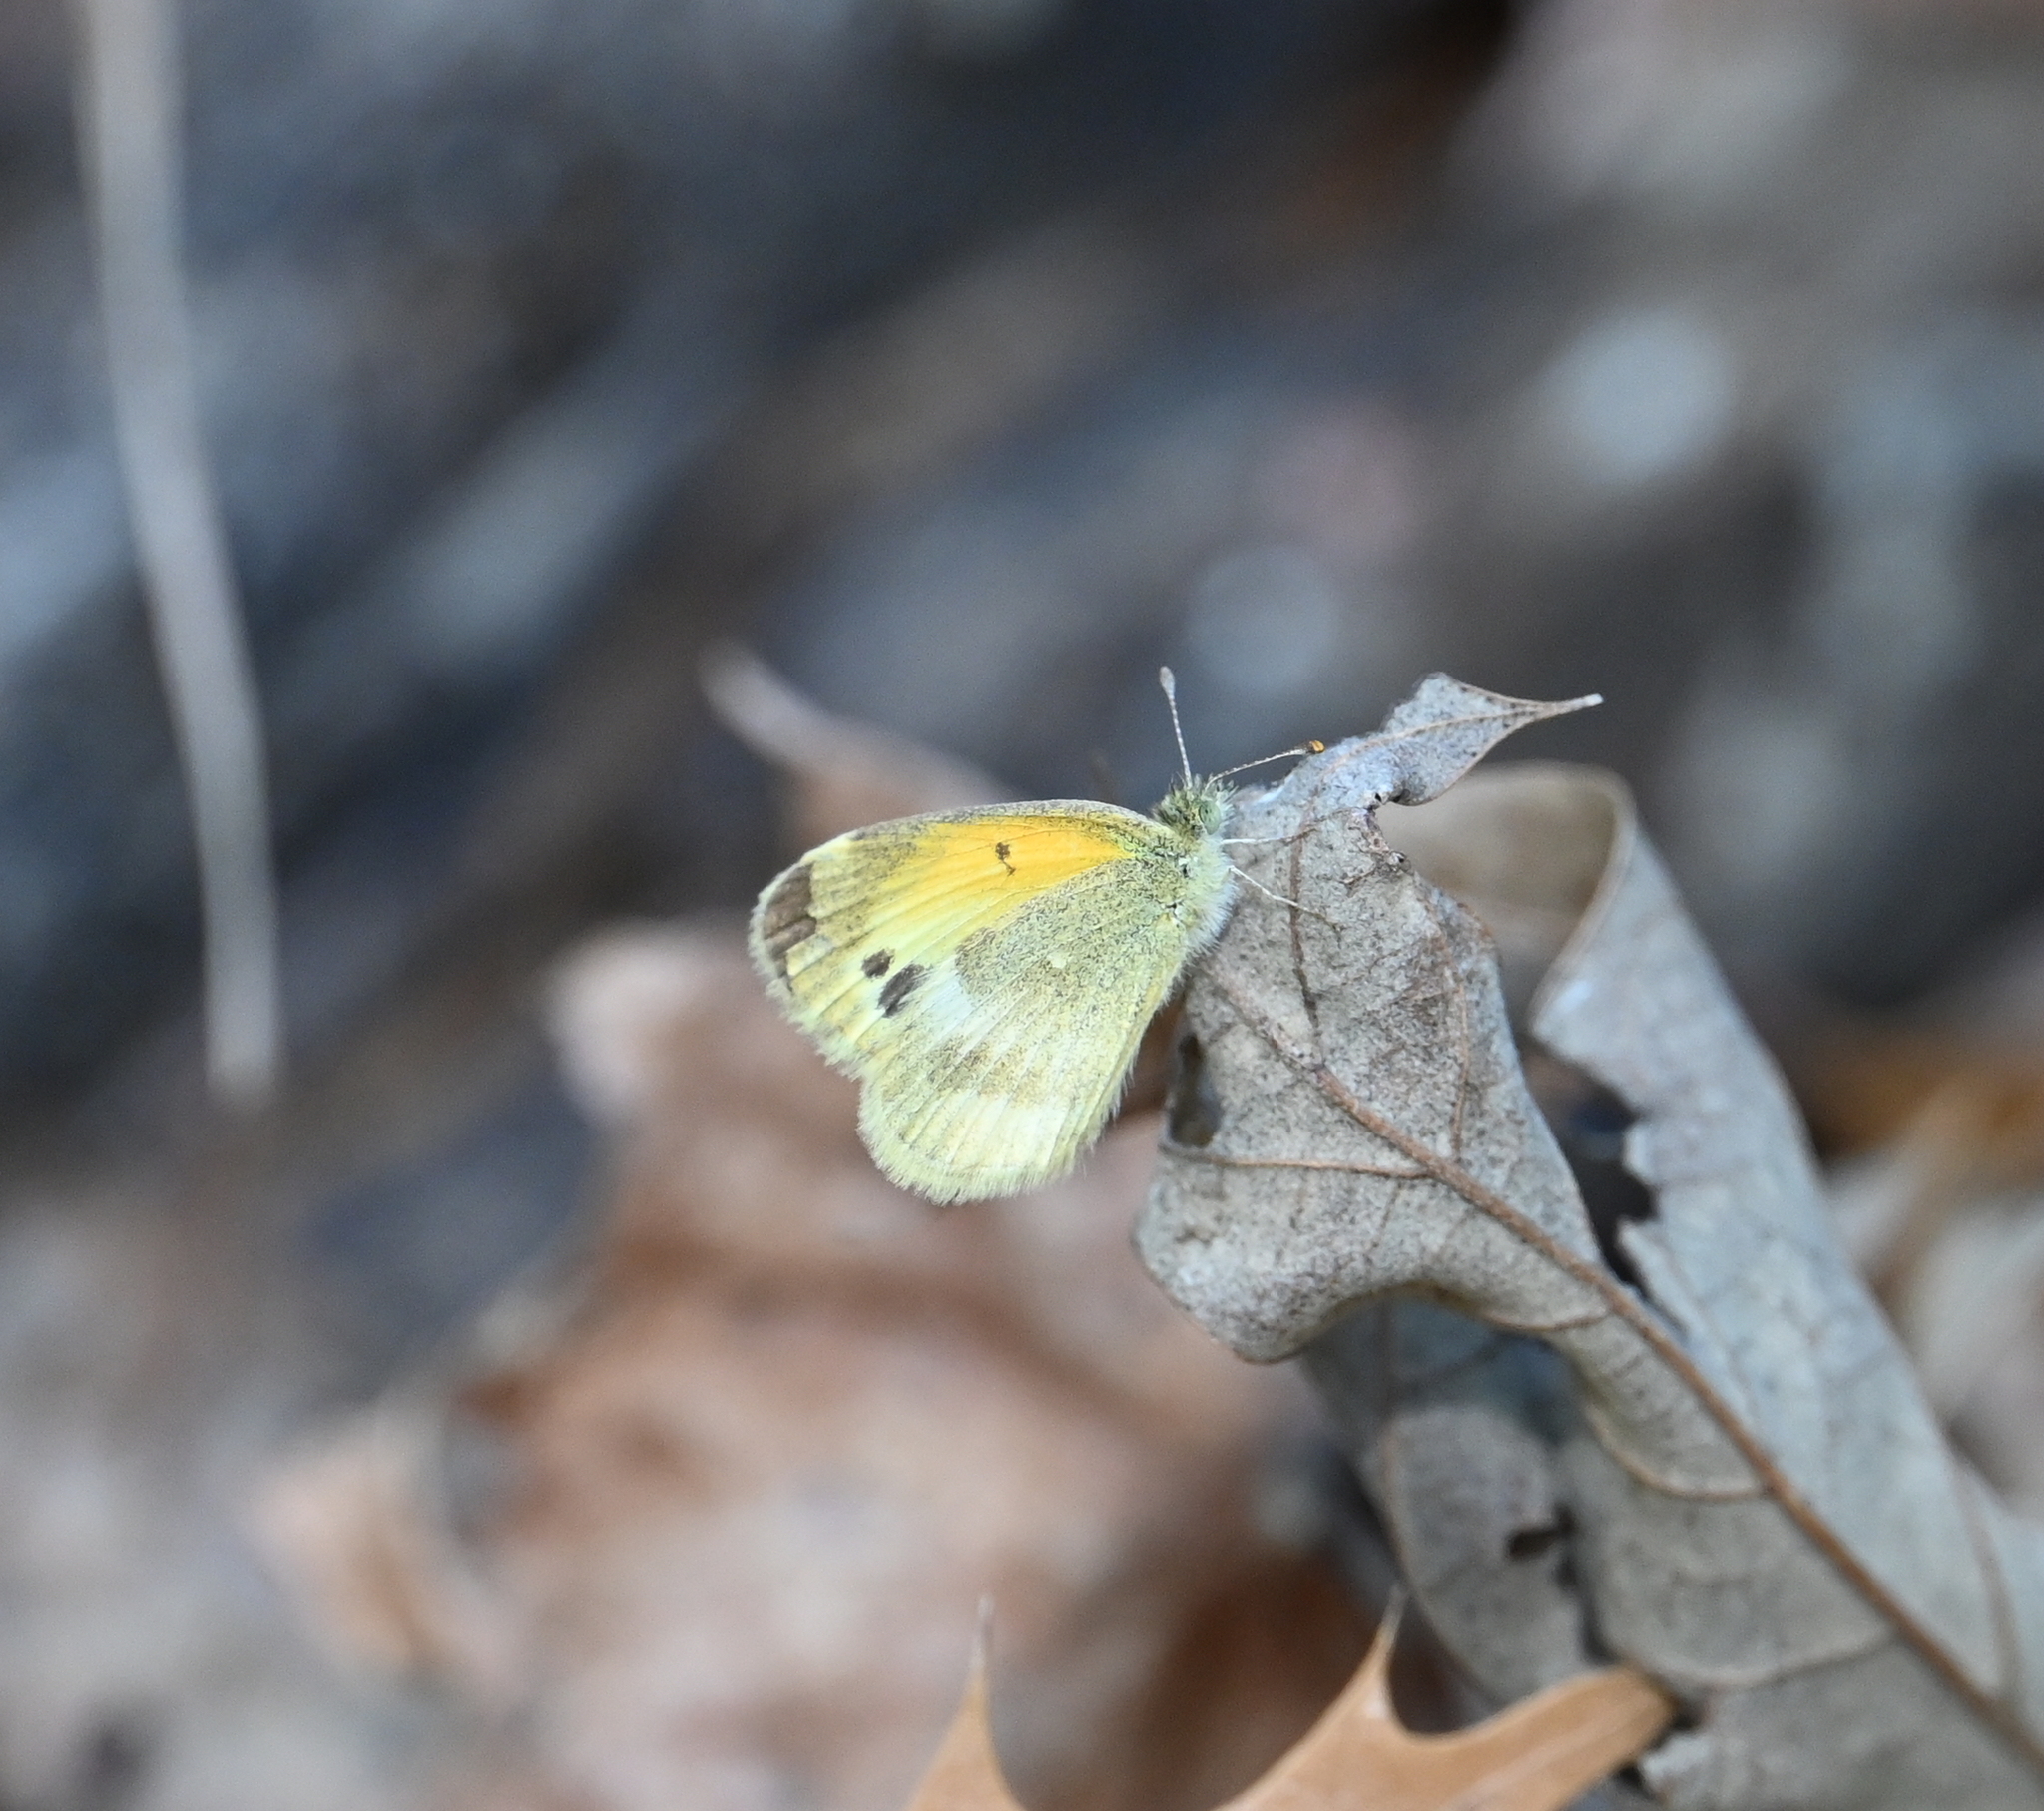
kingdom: Animalia
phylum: Arthropoda
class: Insecta
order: Lepidoptera
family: Pieridae
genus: Nathalis
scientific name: Nathalis iole
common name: Dainty sulphur
